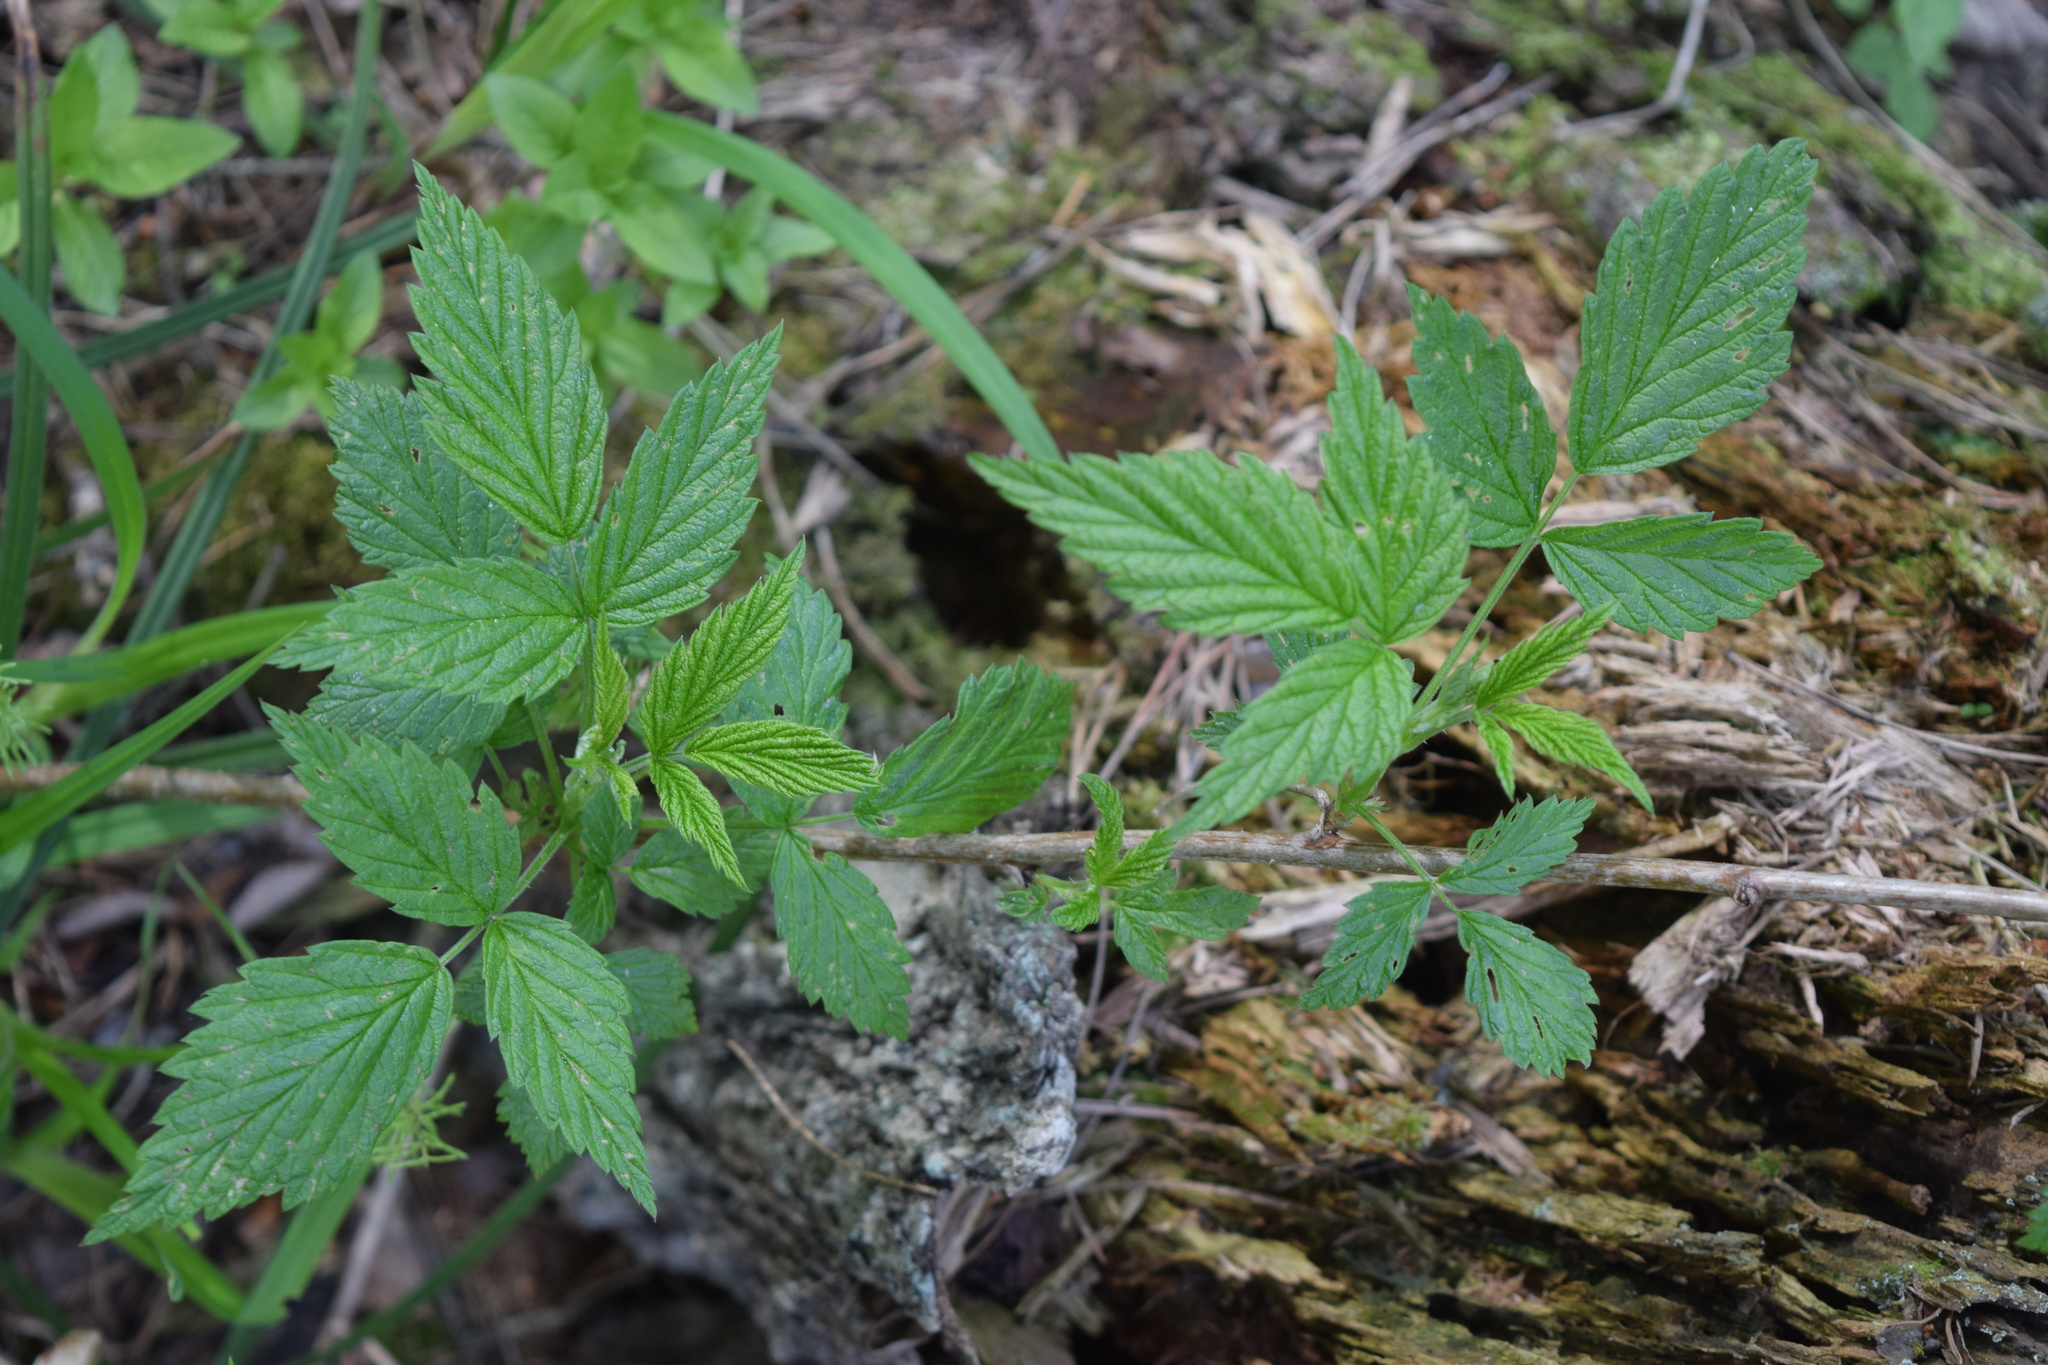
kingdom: Plantae
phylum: Tracheophyta
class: Magnoliopsida
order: Rosales
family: Rosaceae
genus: Rubus
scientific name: Rubus idaeus
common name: Raspberry
